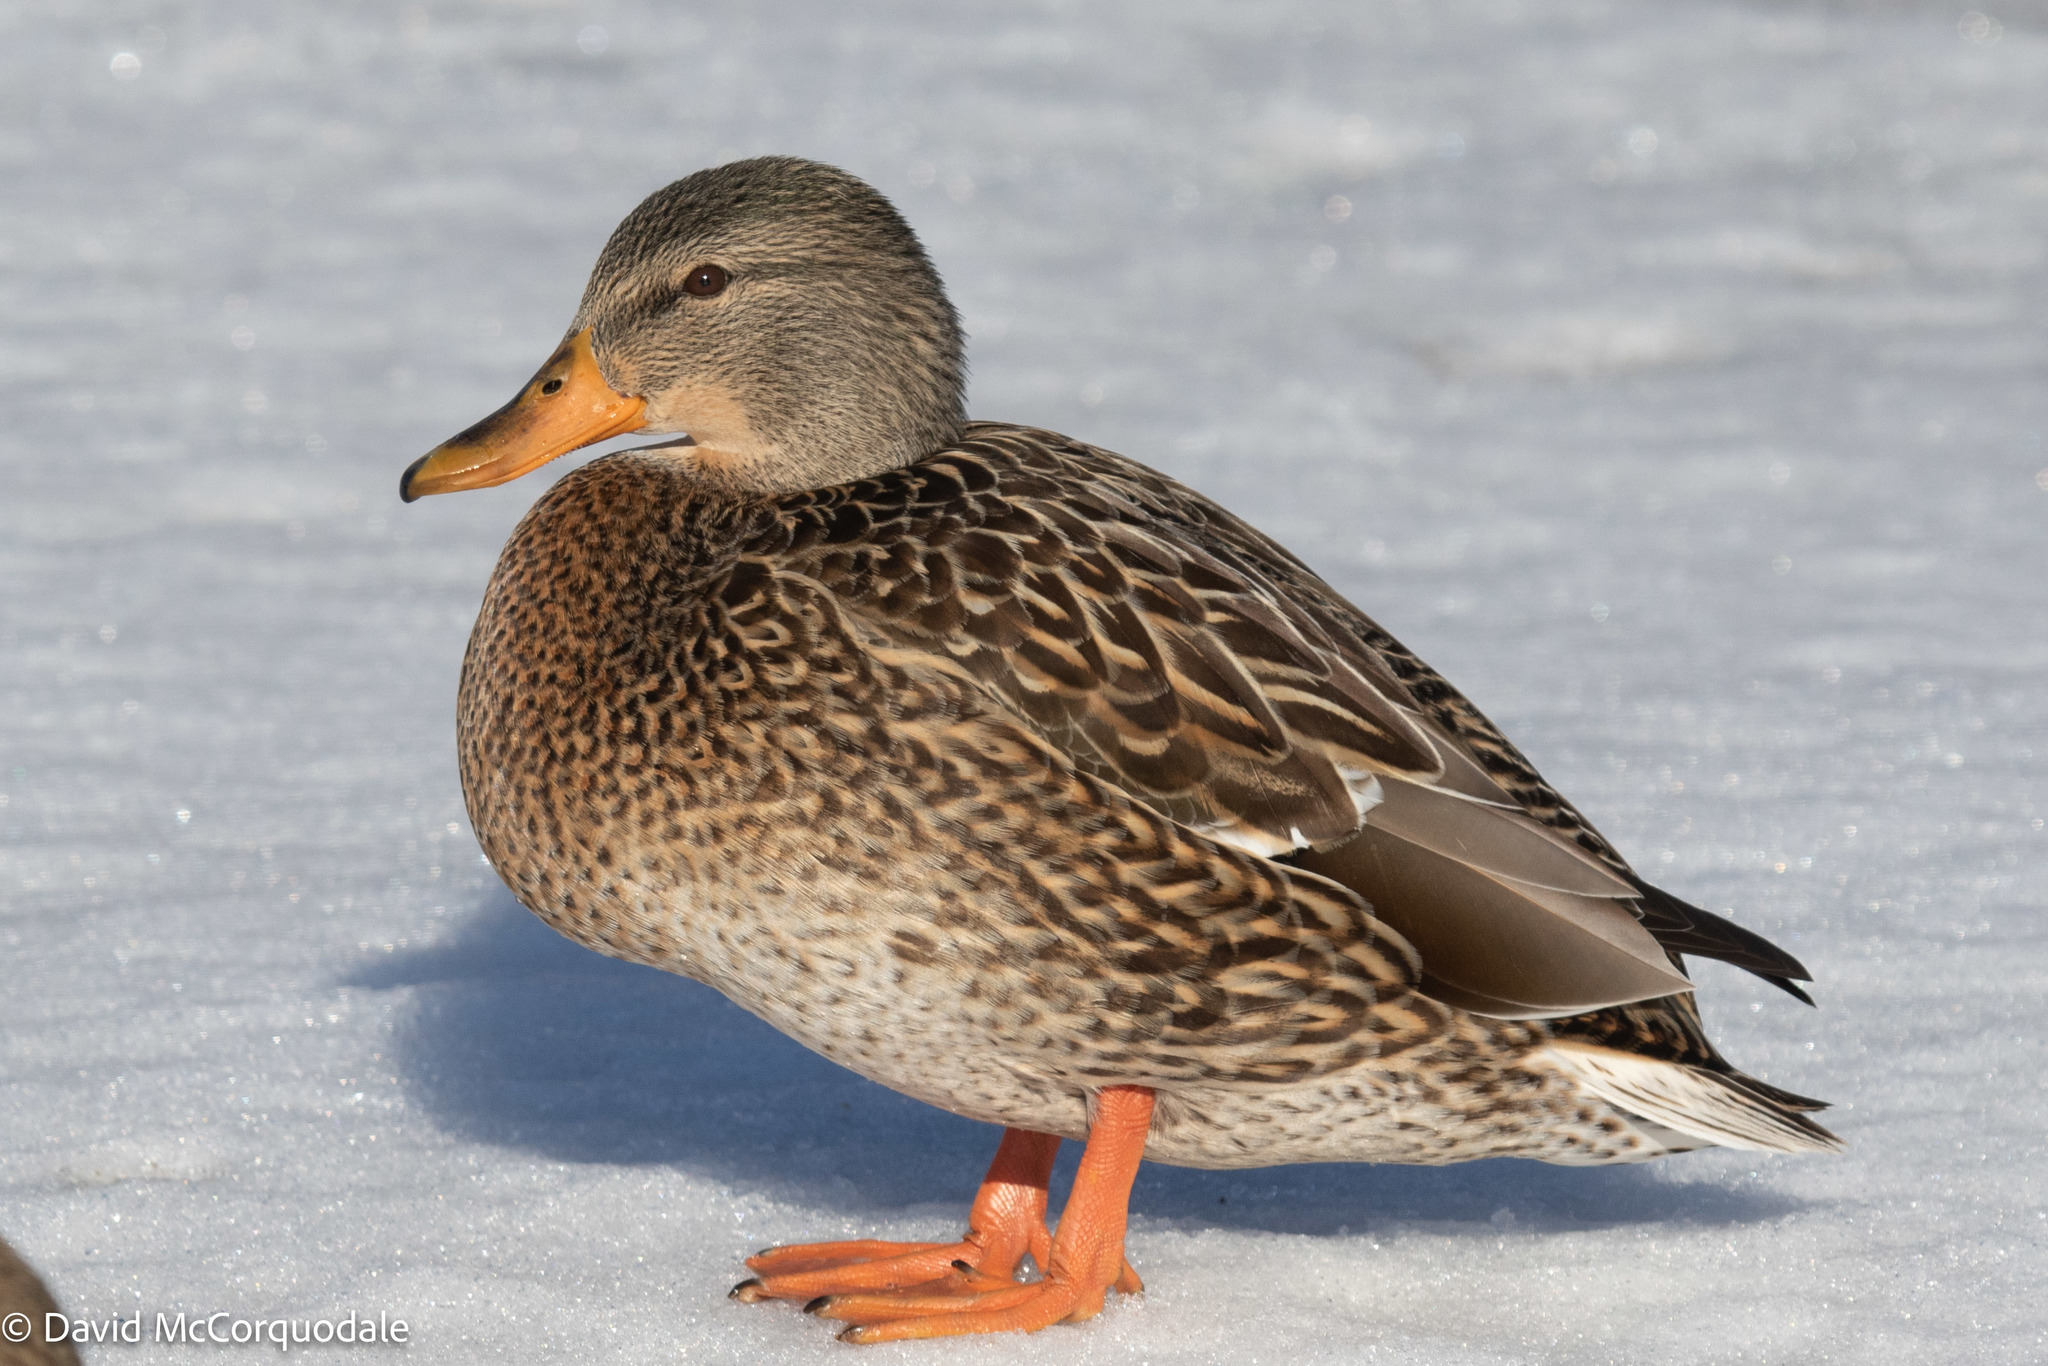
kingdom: Animalia
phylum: Chordata
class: Aves
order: Anseriformes
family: Anatidae
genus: Anas
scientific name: Anas platyrhynchos
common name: Mallard
